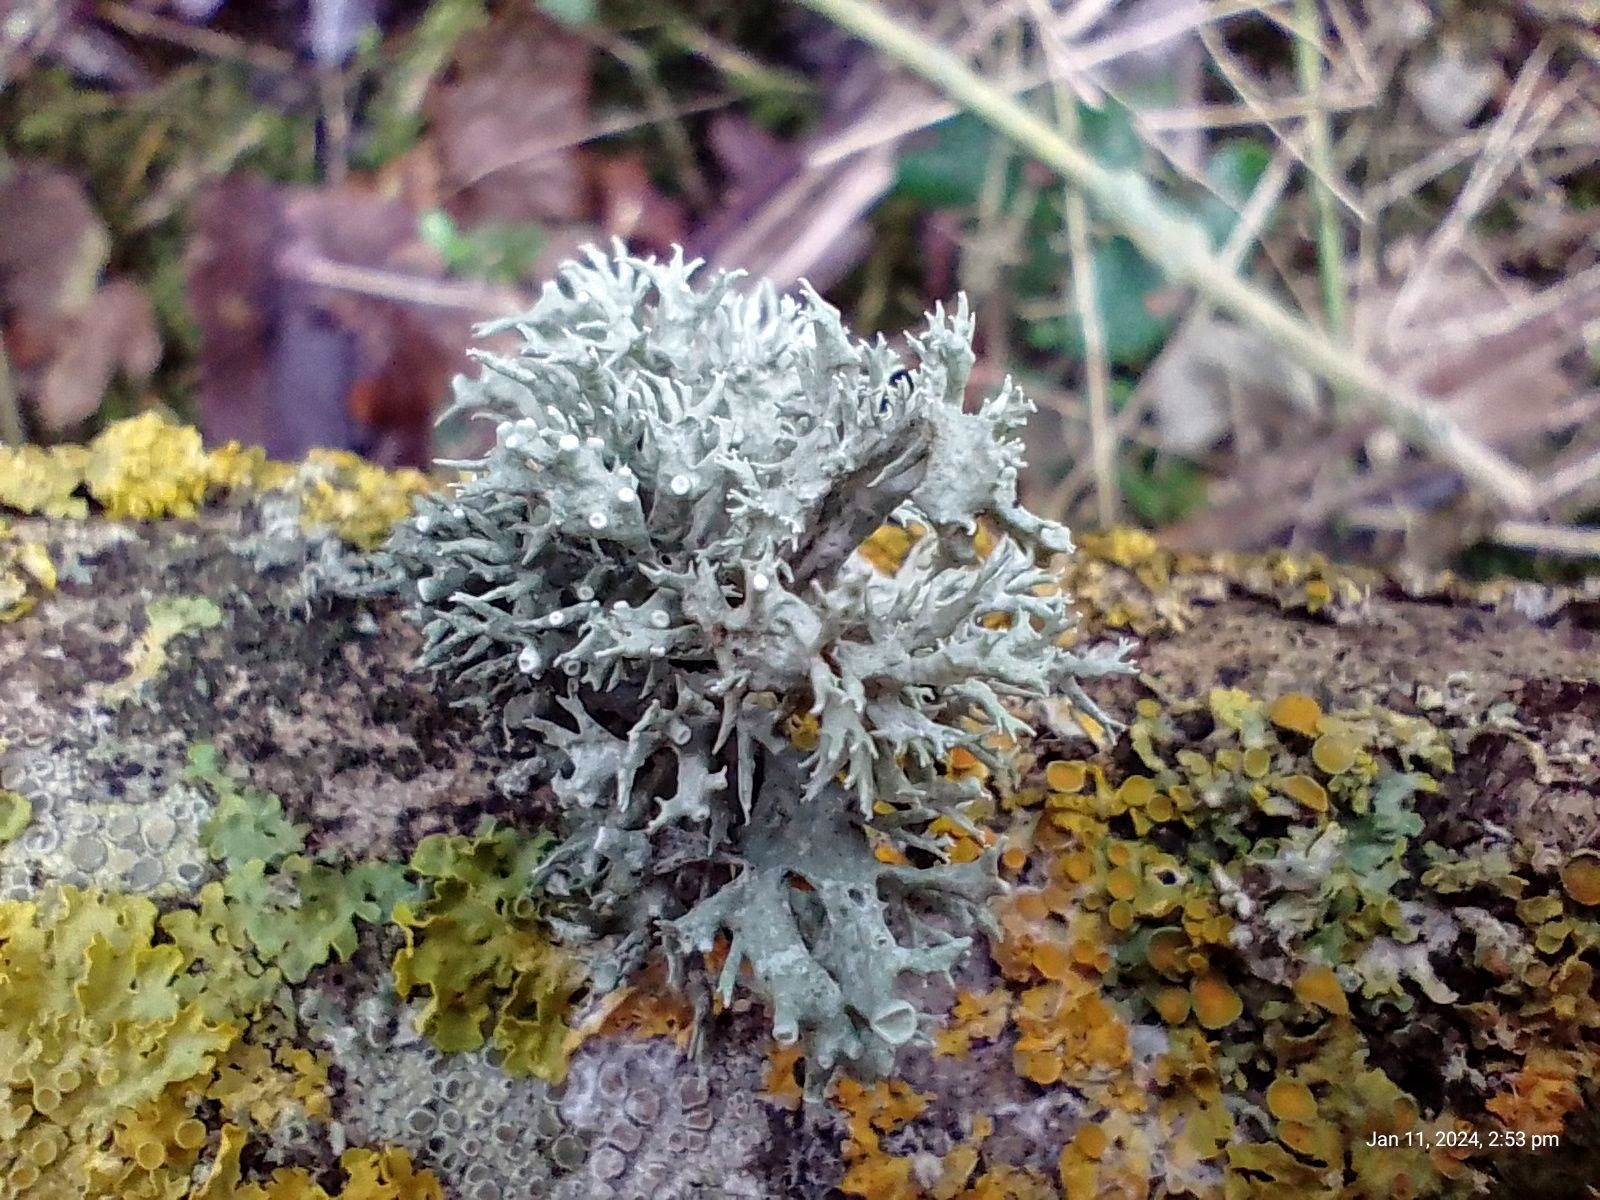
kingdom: Fungi
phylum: Ascomycota
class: Lecanoromycetes
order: Lecanorales
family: Ramalinaceae
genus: Ramalina
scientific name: Ramalina fastigiata
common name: Dotted ribbon lichen
